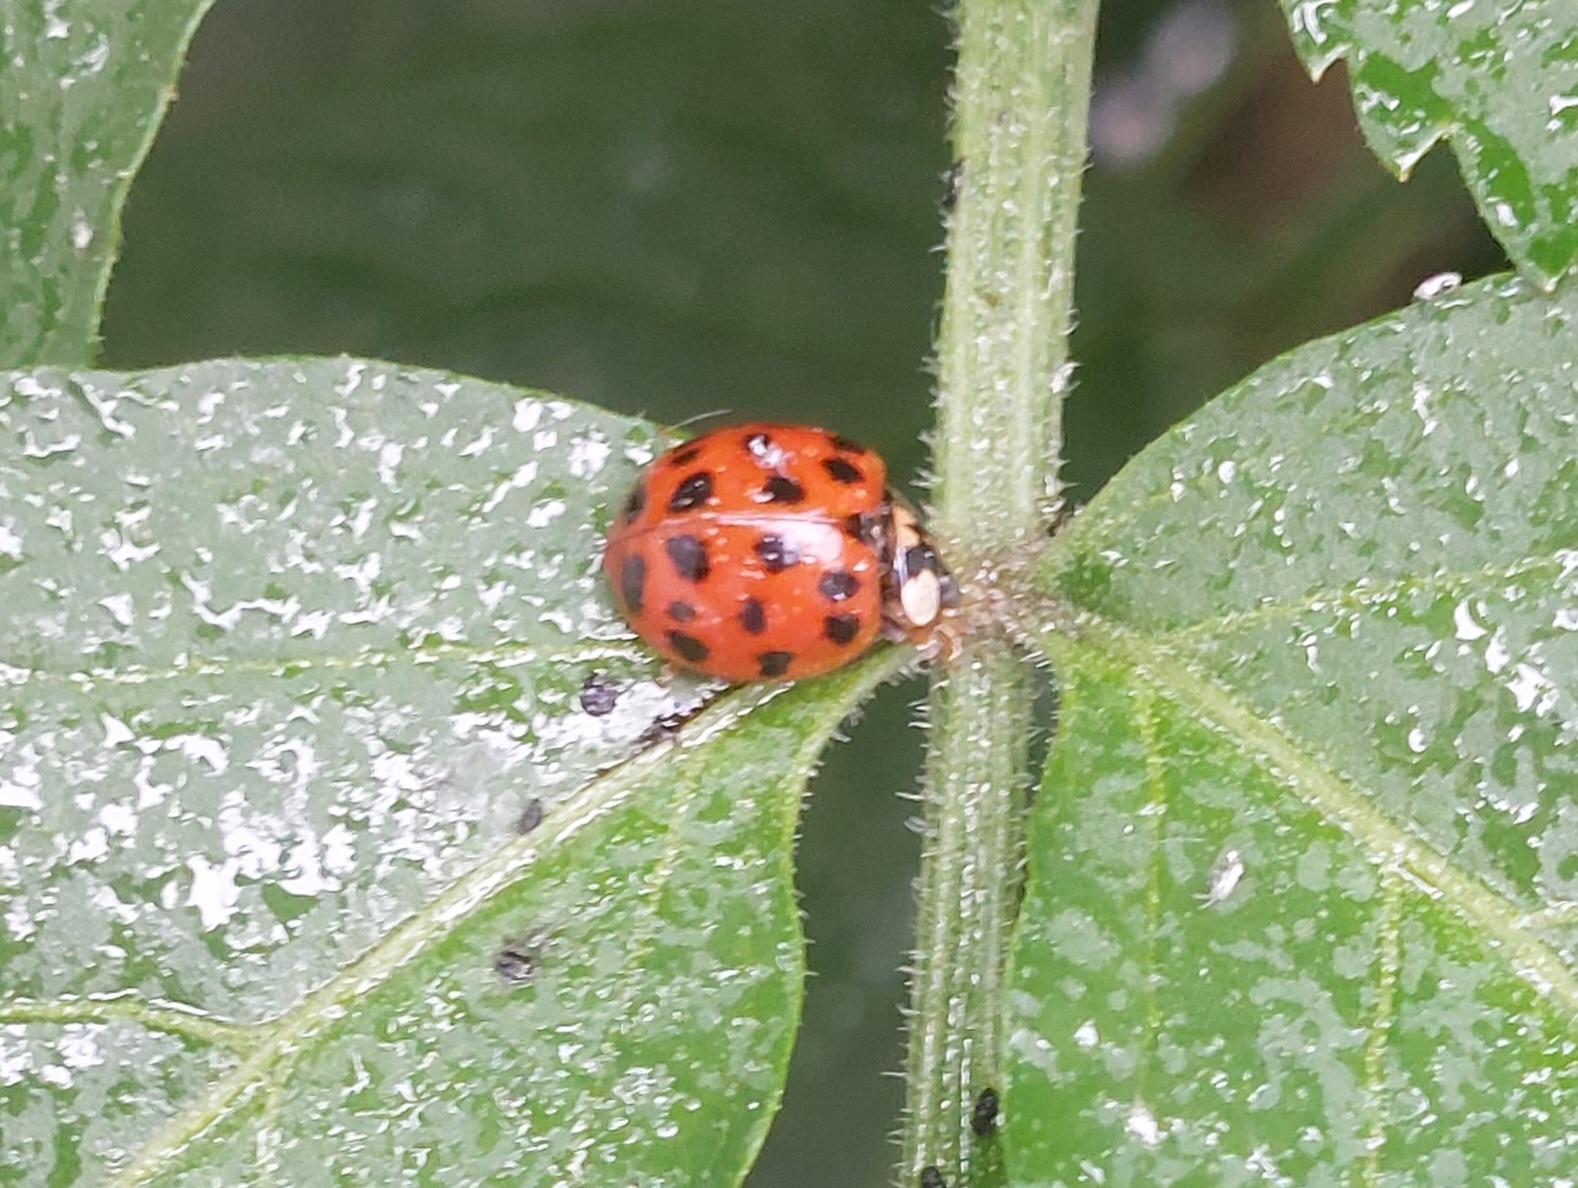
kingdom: Animalia
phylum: Arthropoda
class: Insecta
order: Coleoptera
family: Coccinellidae
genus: Harmonia
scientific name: Harmonia axyridis
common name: Harlequin ladybird
